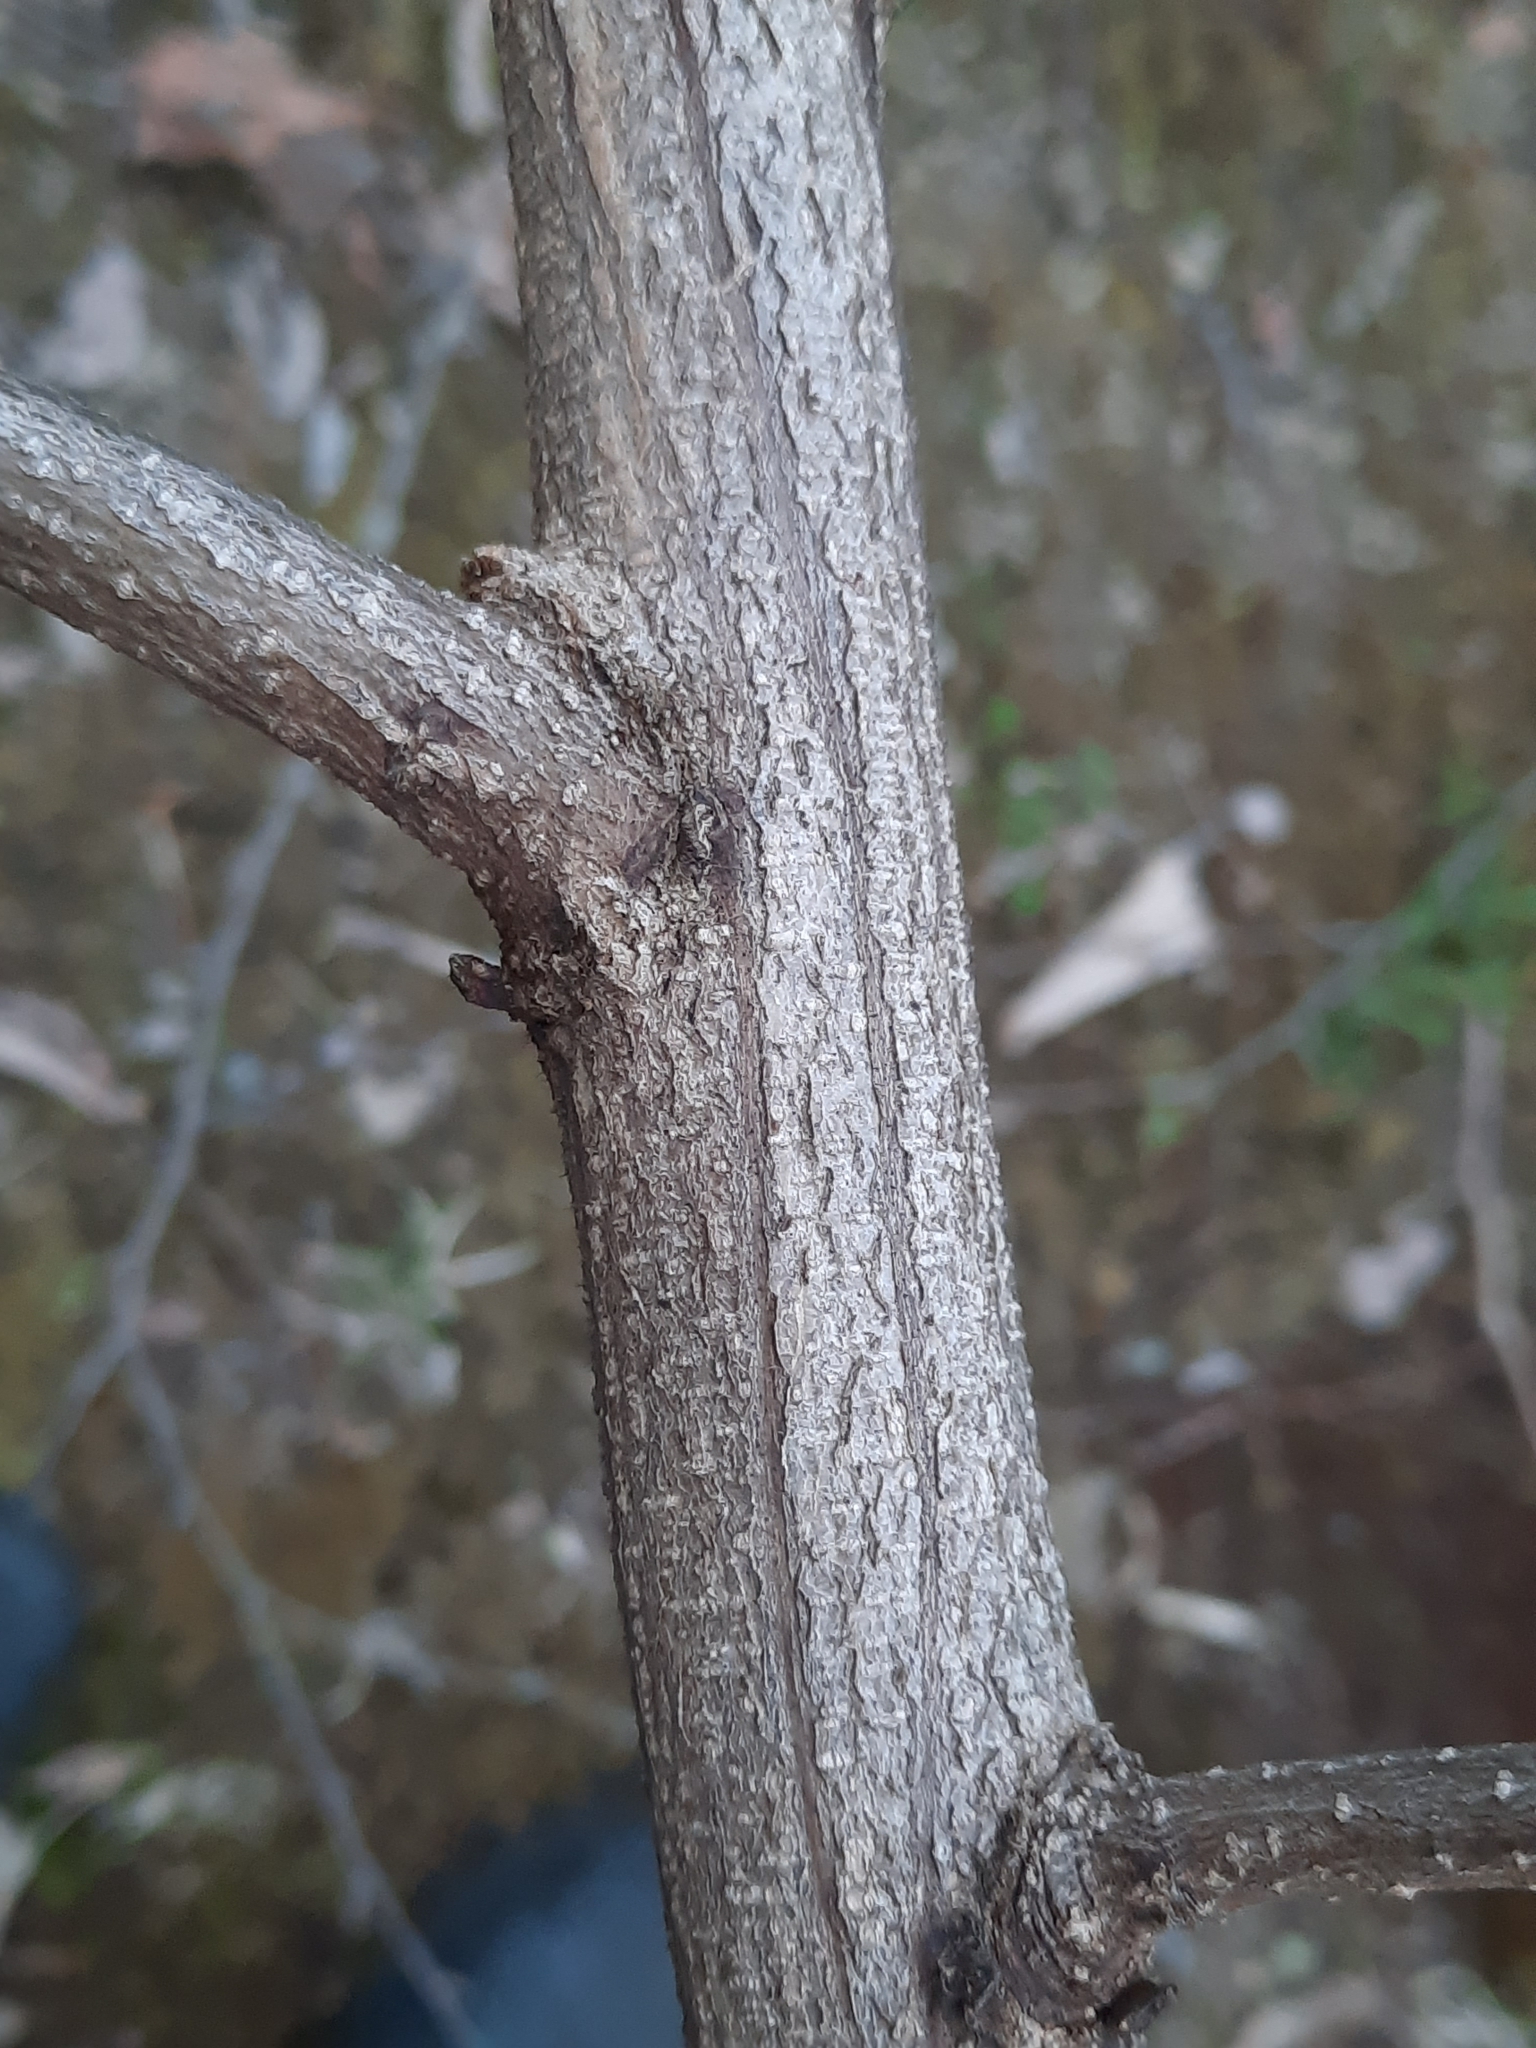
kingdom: Plantae
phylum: Tracheophyta
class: Magnoliopsida
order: Fabales
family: Fabaceae
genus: Robinia
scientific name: Robinia pseudoacacia
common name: Black locust
